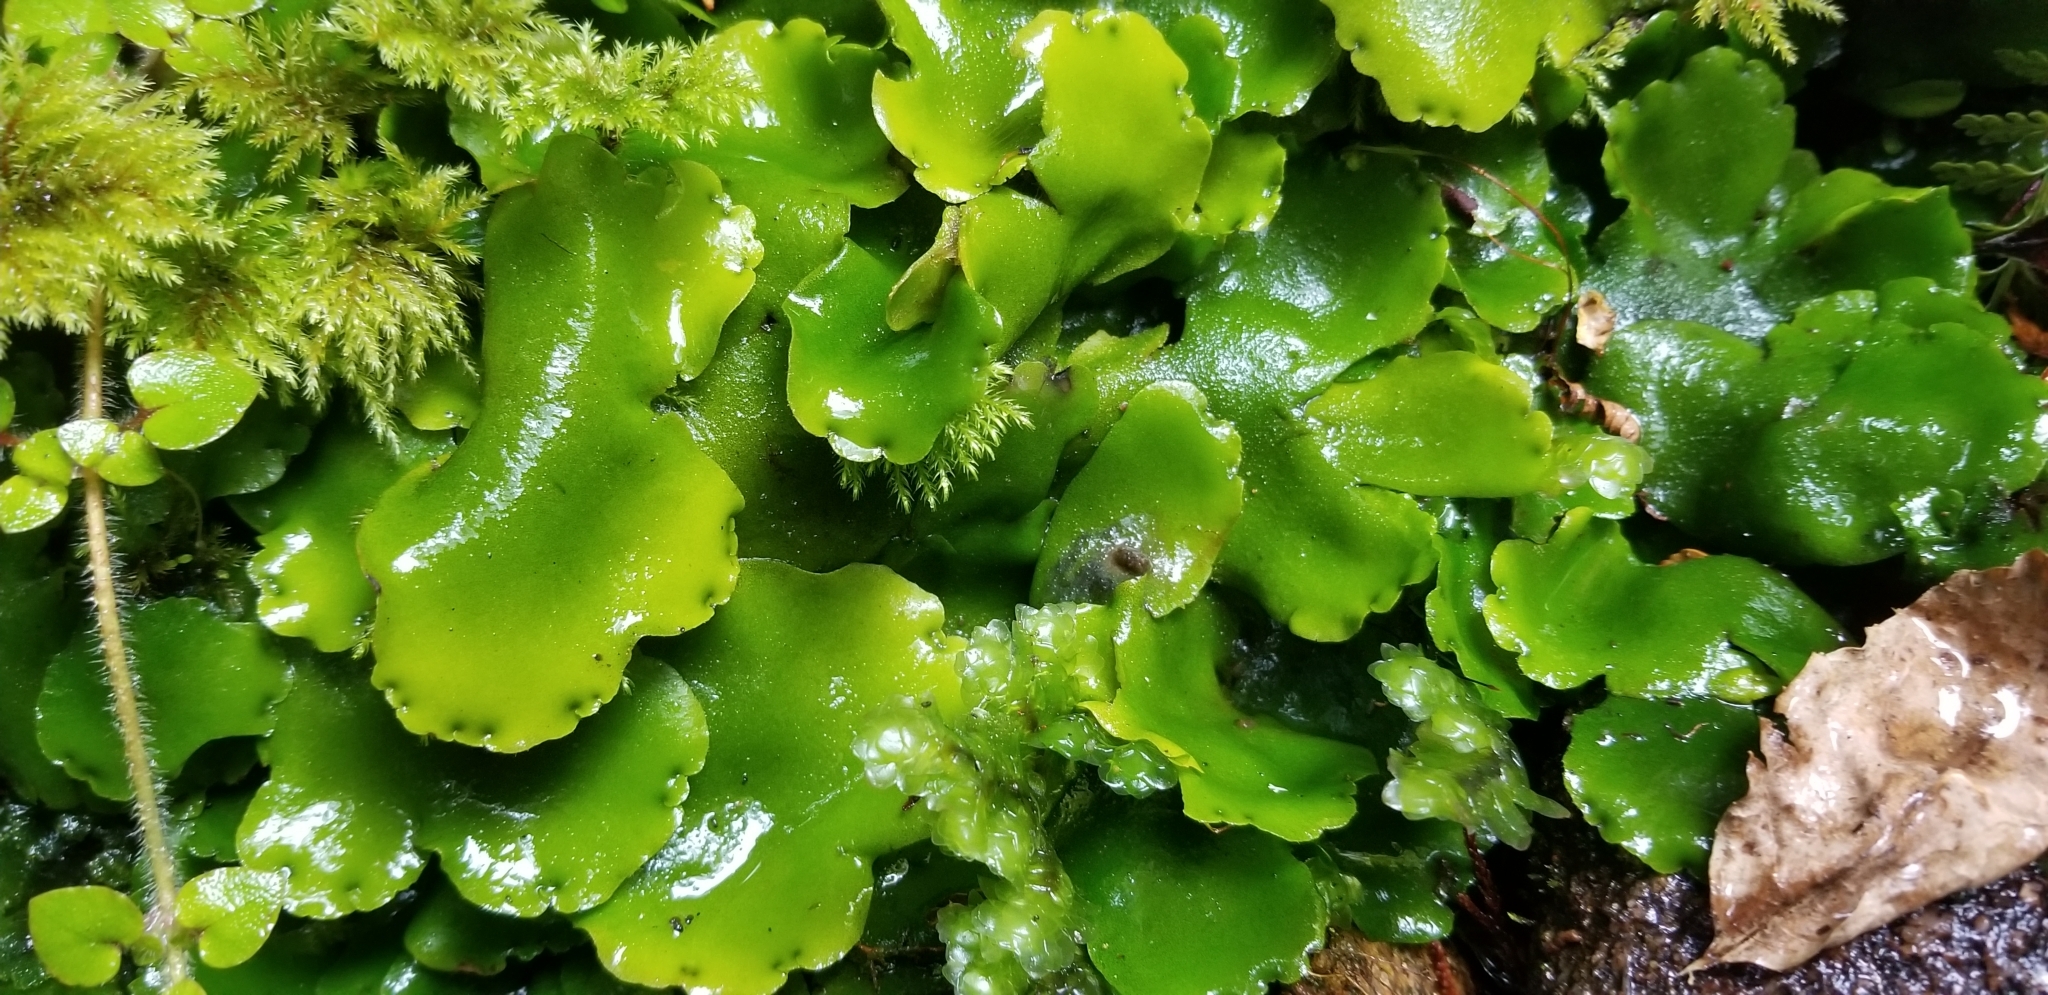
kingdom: Plantae
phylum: Marchantiophyta
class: Marchantiopsida
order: Marchantiales
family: Monocleaceae
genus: Monoclea
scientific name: Monoclea forsteri
